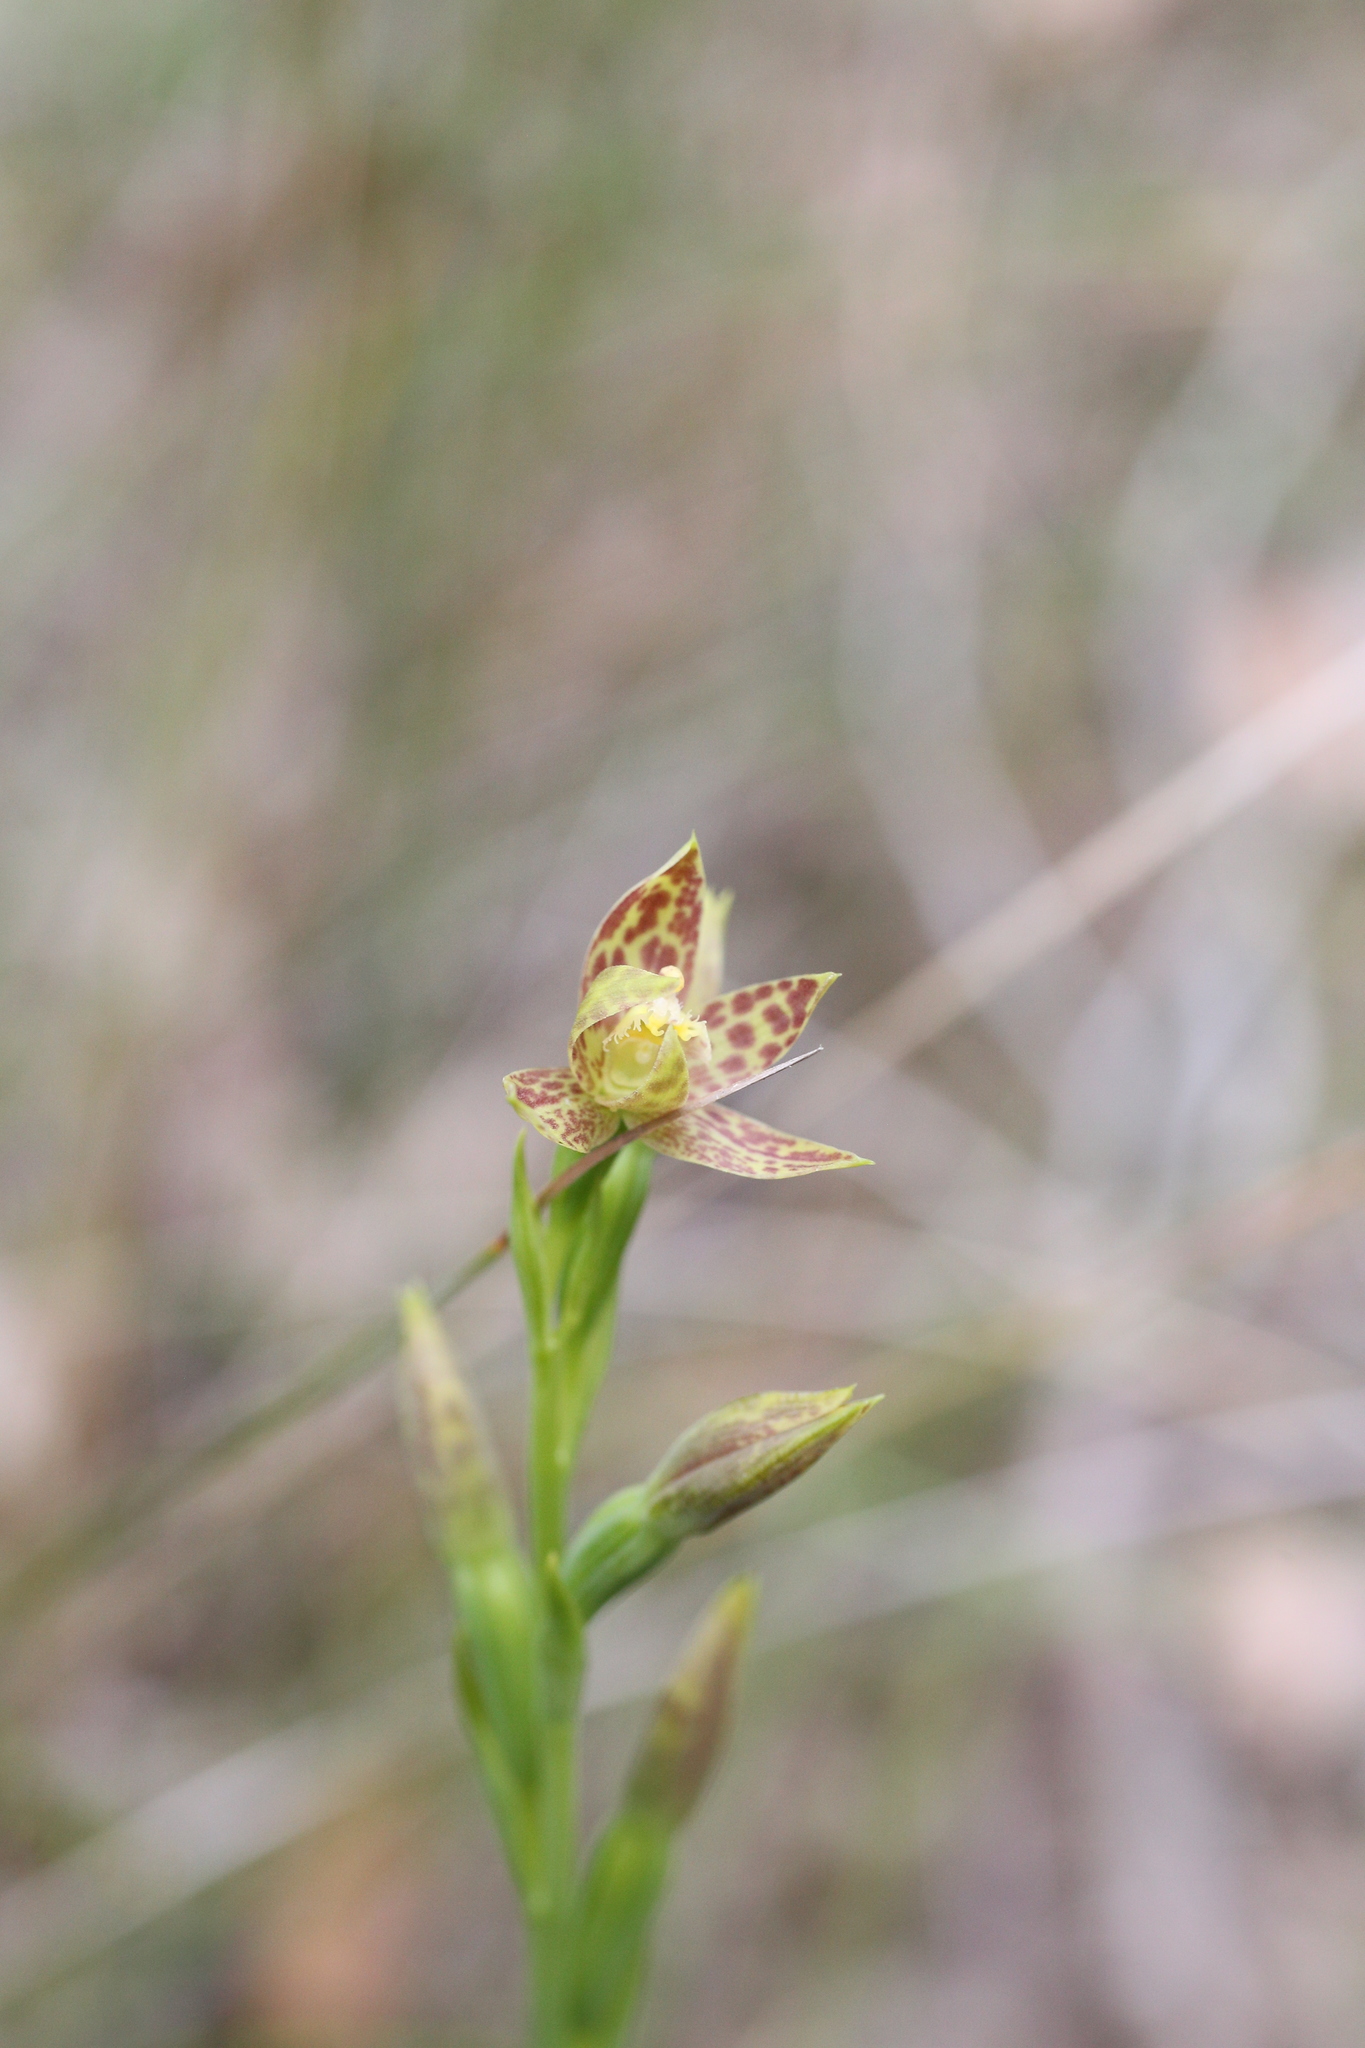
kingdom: Plantae
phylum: Tracheophyta
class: Liliopsida
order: Asparagales
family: Orchidaceae
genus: Thelymitra
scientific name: Thelymitra benthamiana
